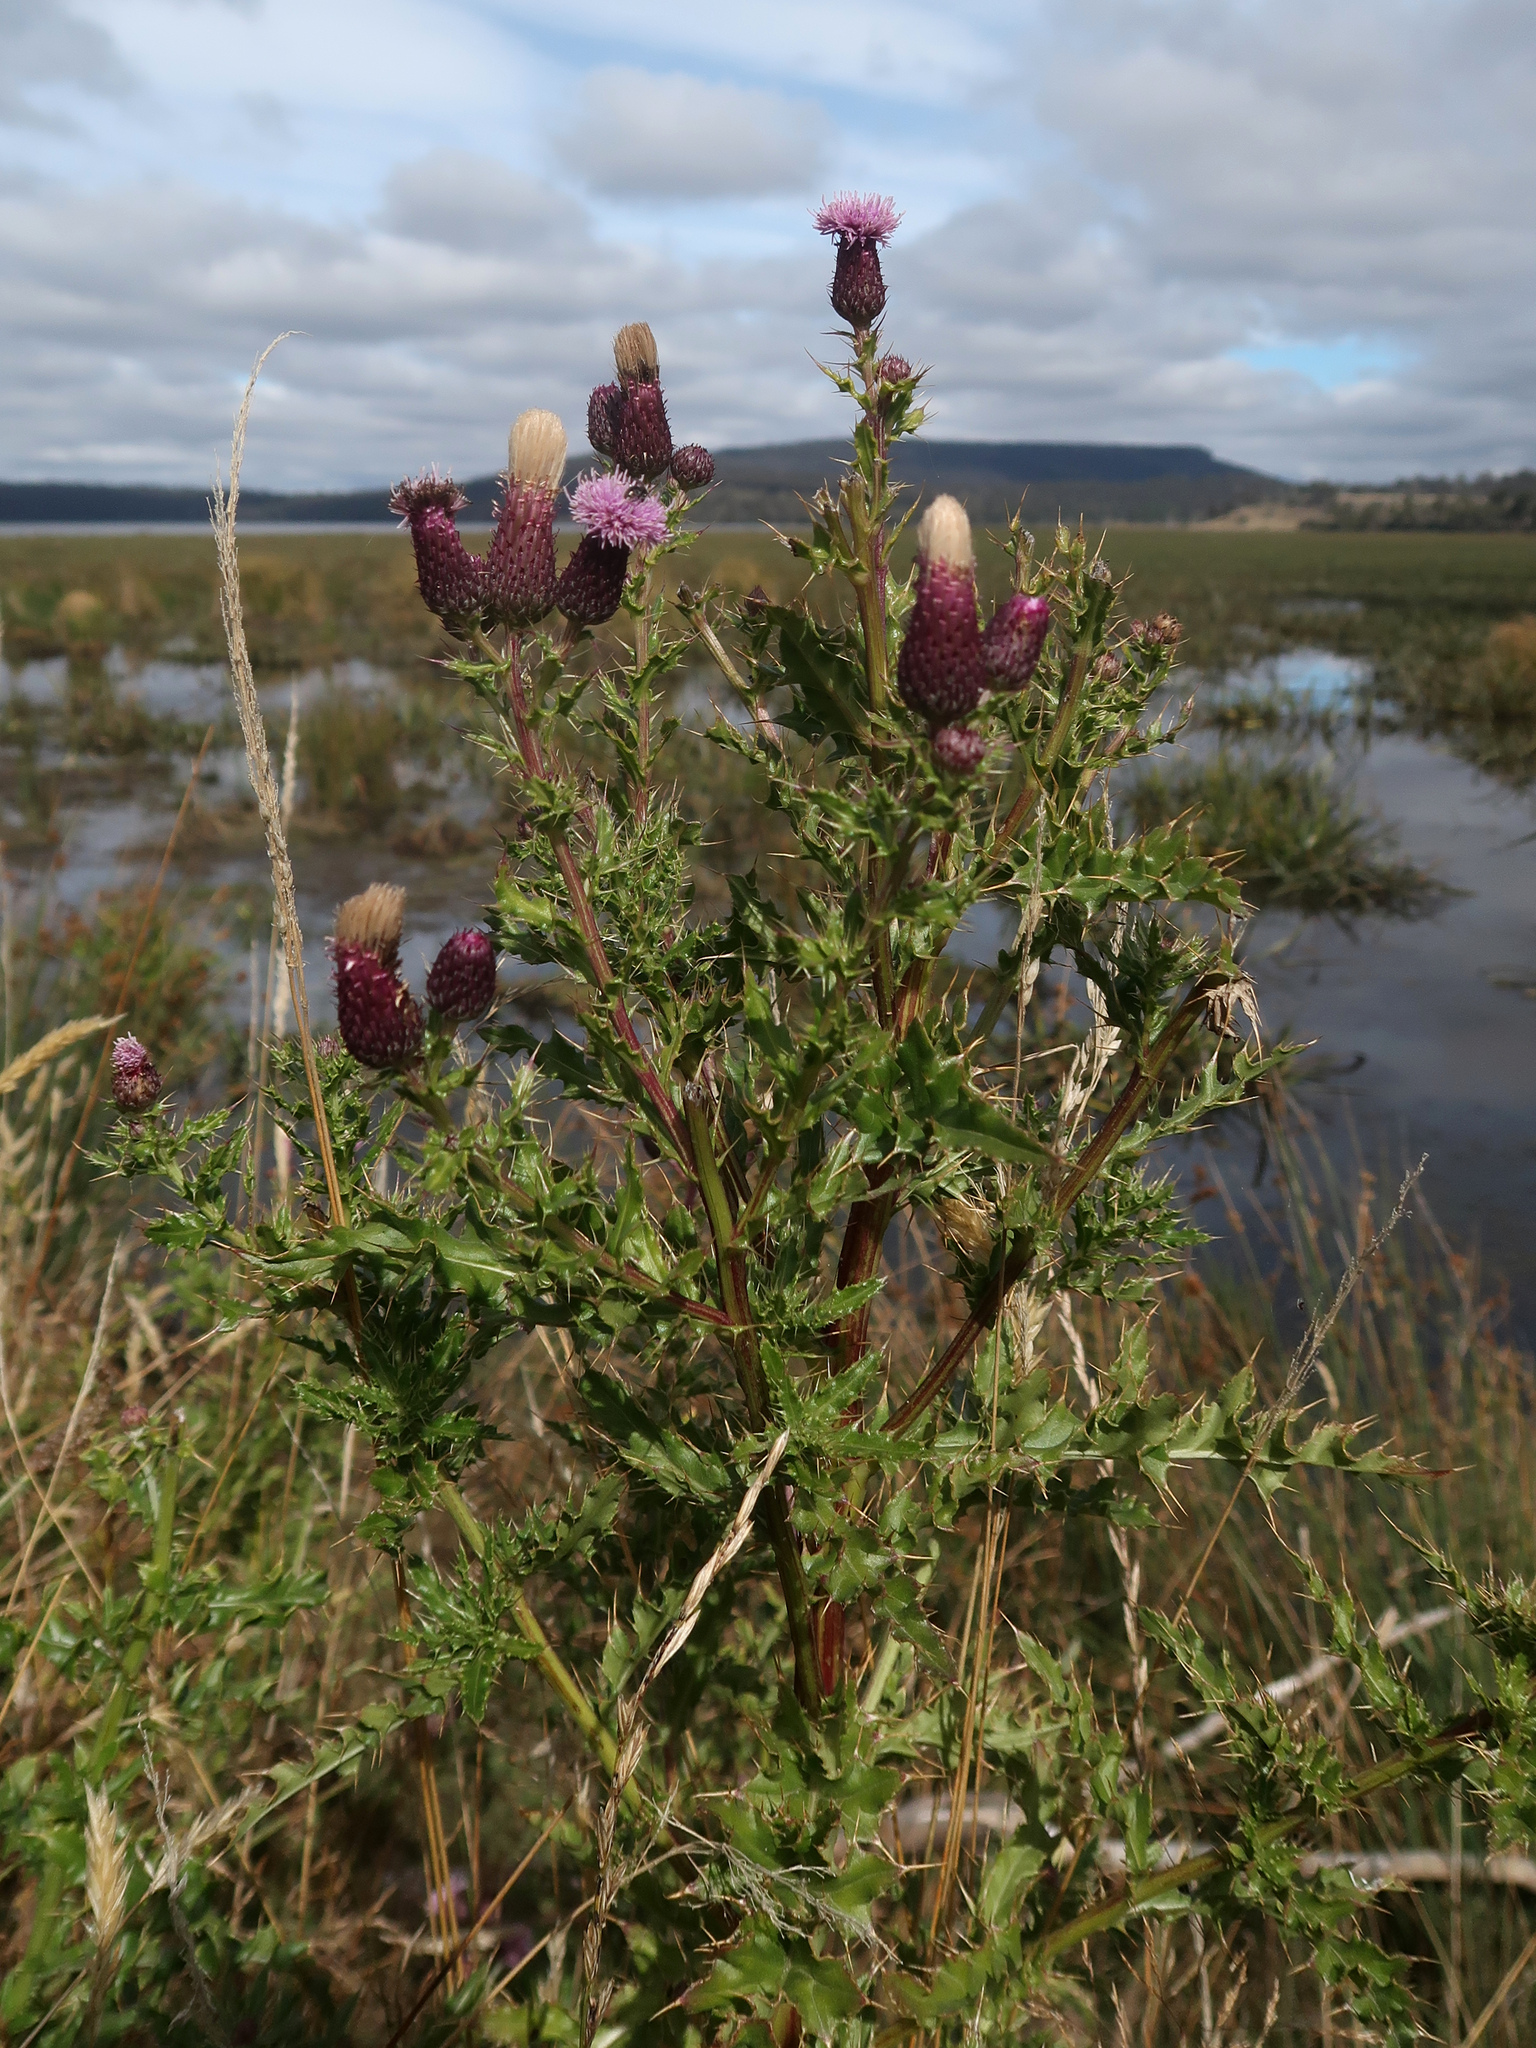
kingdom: Plantae
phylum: Tracheophyta
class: Magnoliopsida
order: Asterales
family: Asteraceae
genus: Cirsium
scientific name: Cirsium arvense
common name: Creeping thistle
